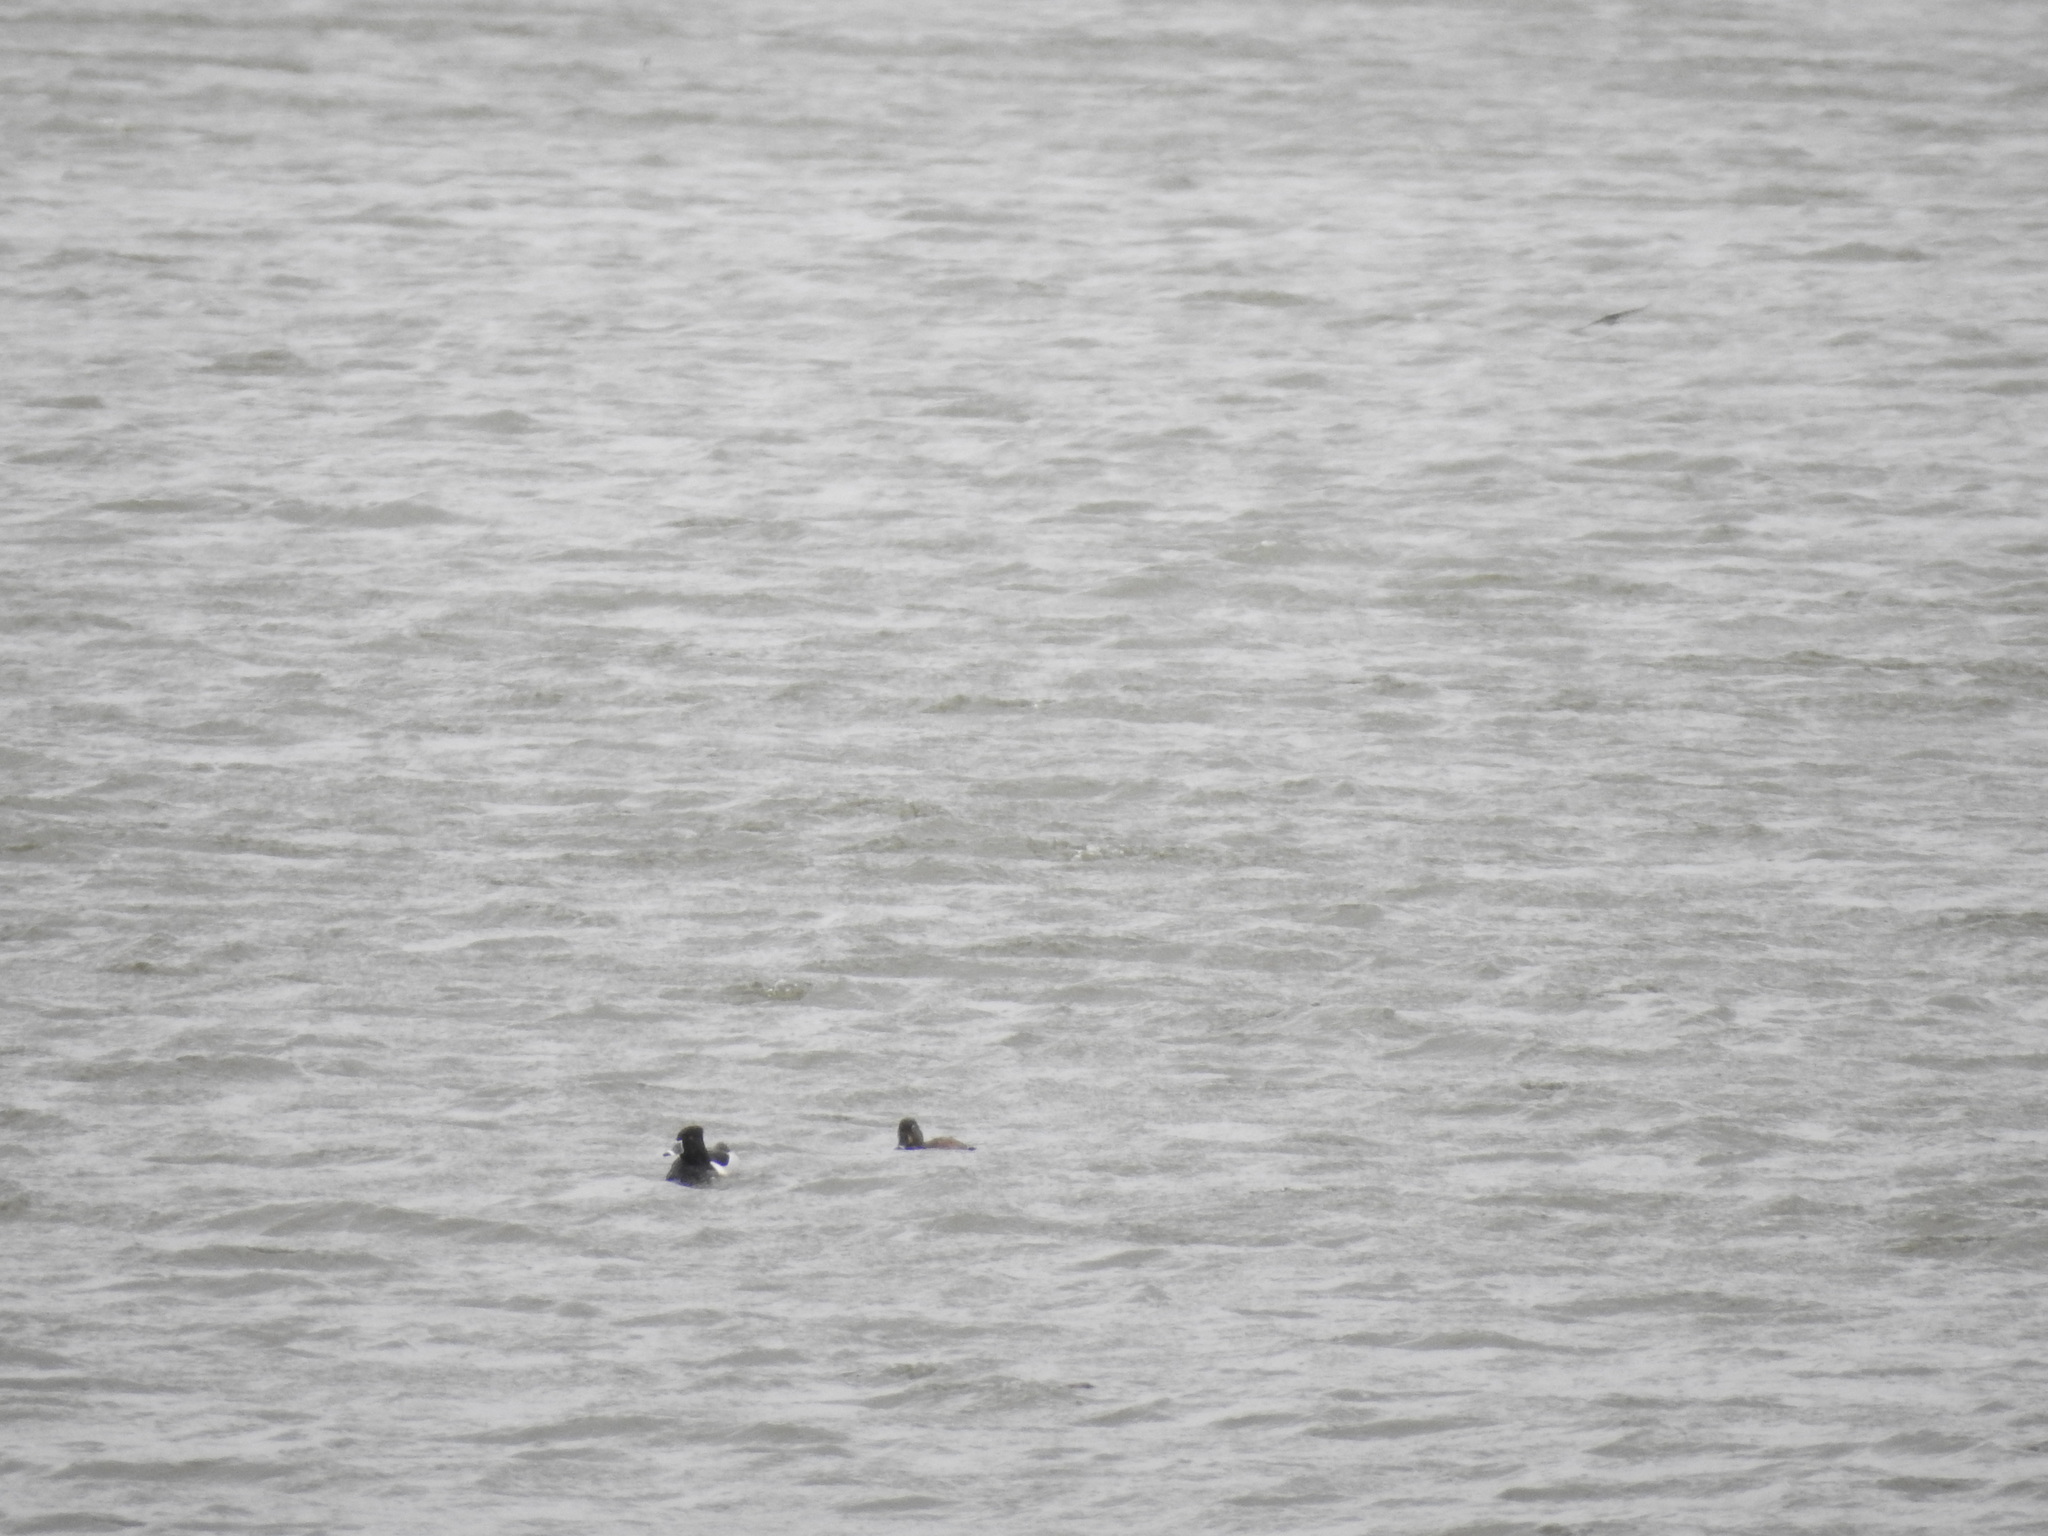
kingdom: Animalia
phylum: Chordata
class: Aves
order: Anseriformes
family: Anatidae
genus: Aythya
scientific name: Aythya collaris
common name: Ring-necked duck
